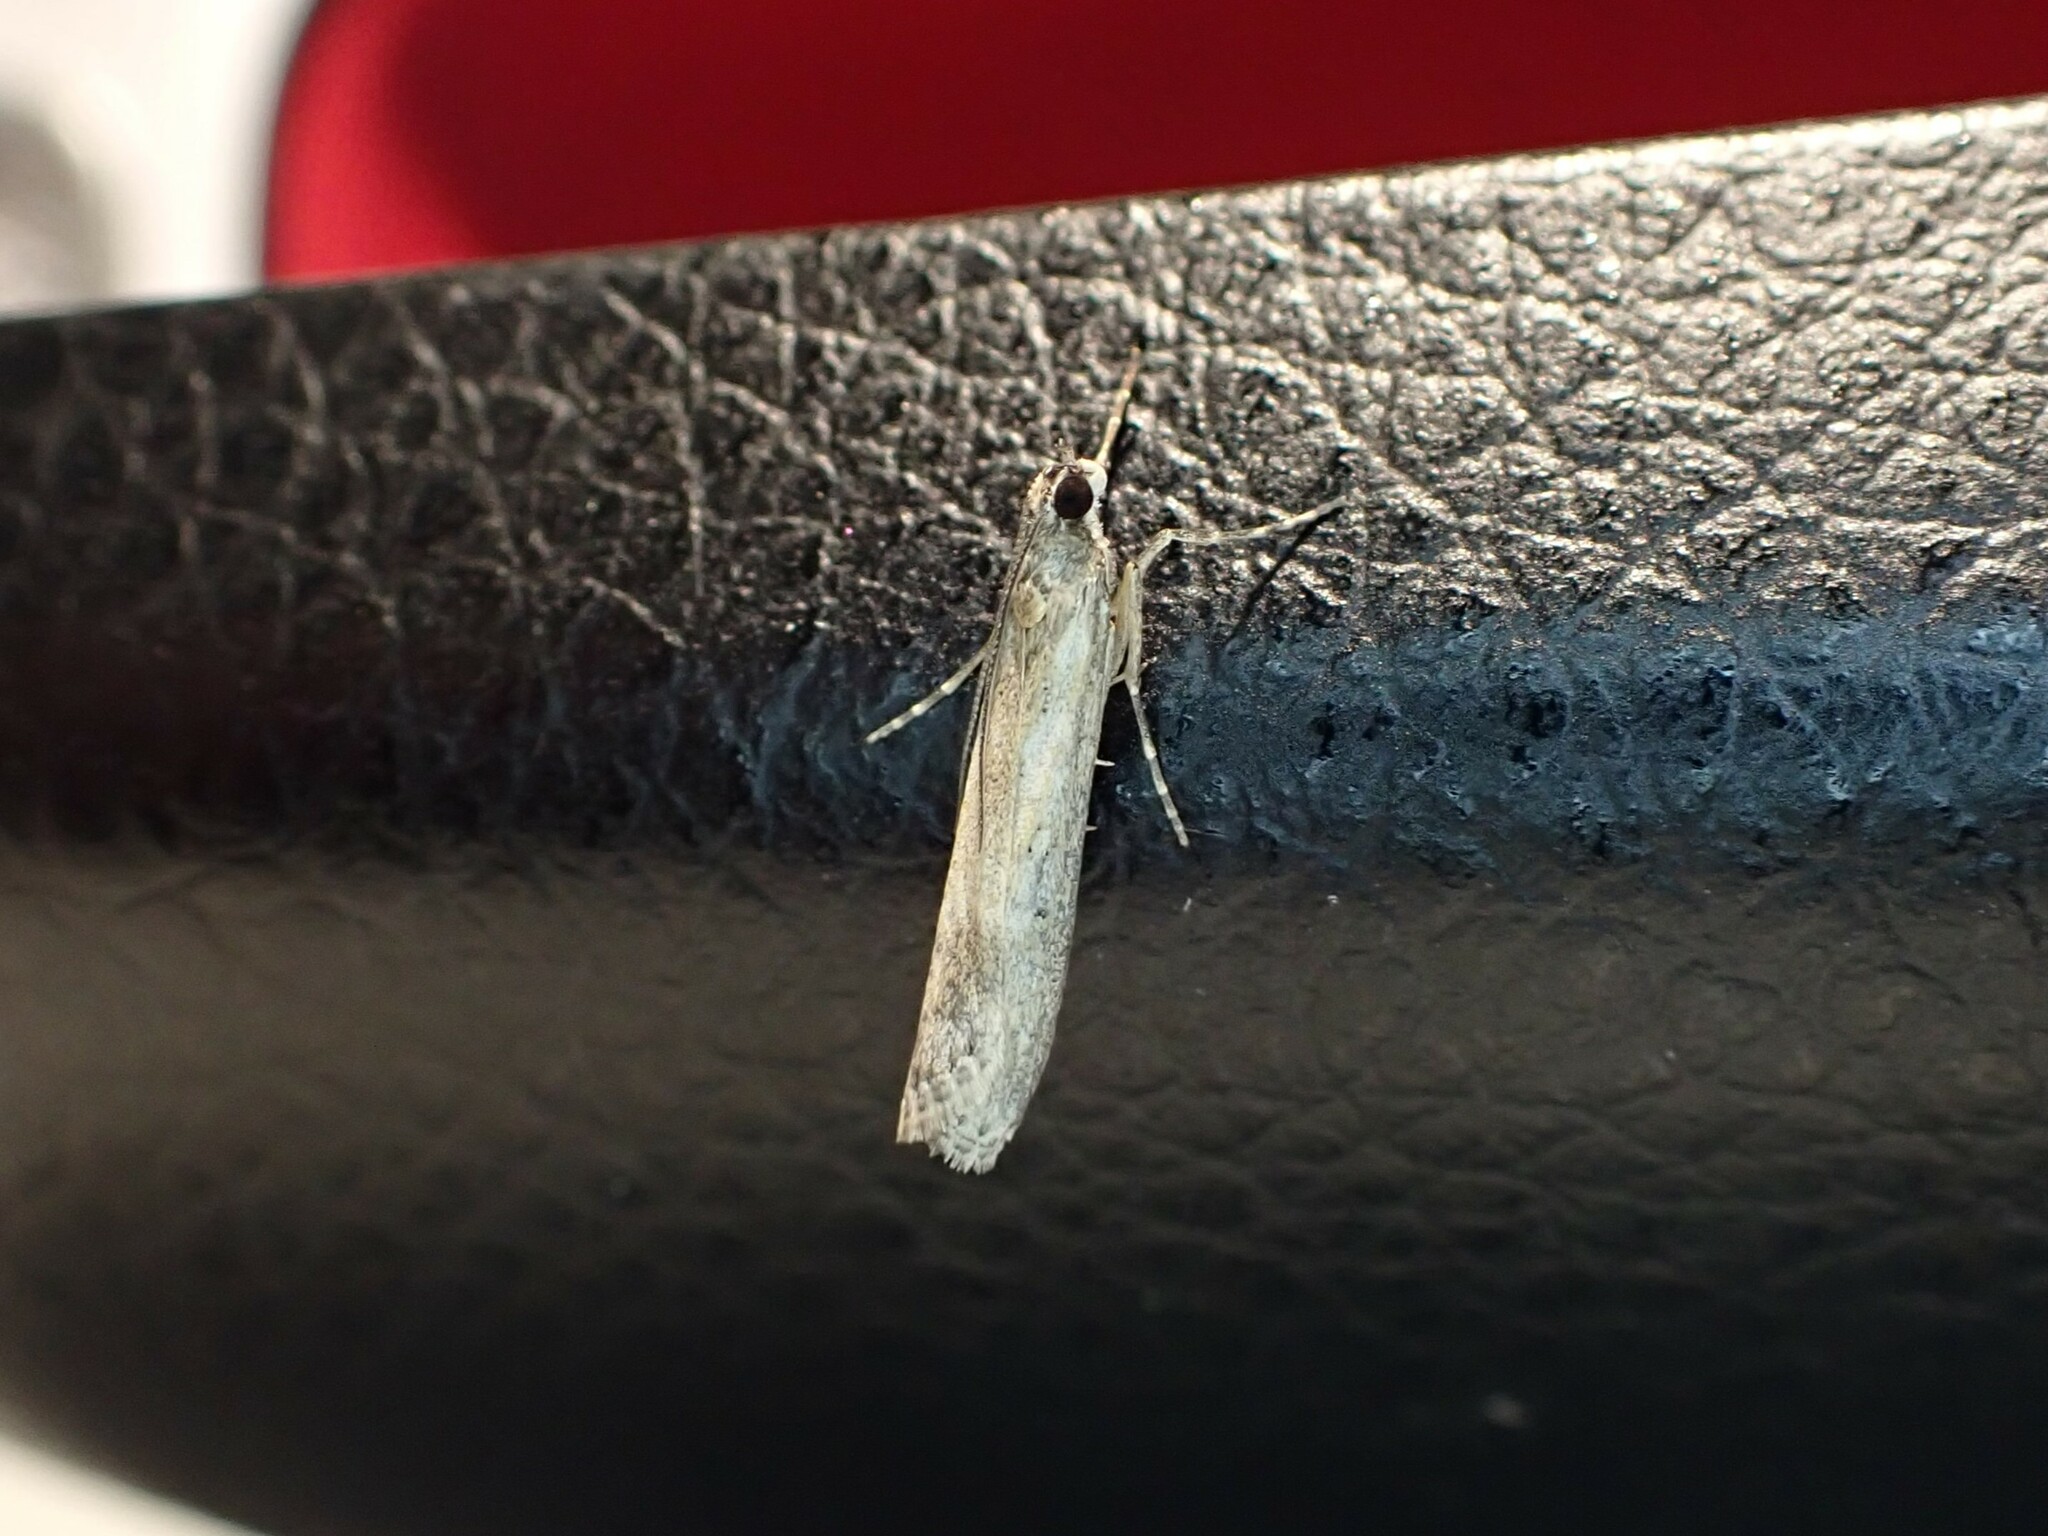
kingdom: Animalia
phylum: Arthropoda
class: Insecta
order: Lepidoptera
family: Crambidae
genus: Eudonia
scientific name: Eudonia leptalea
